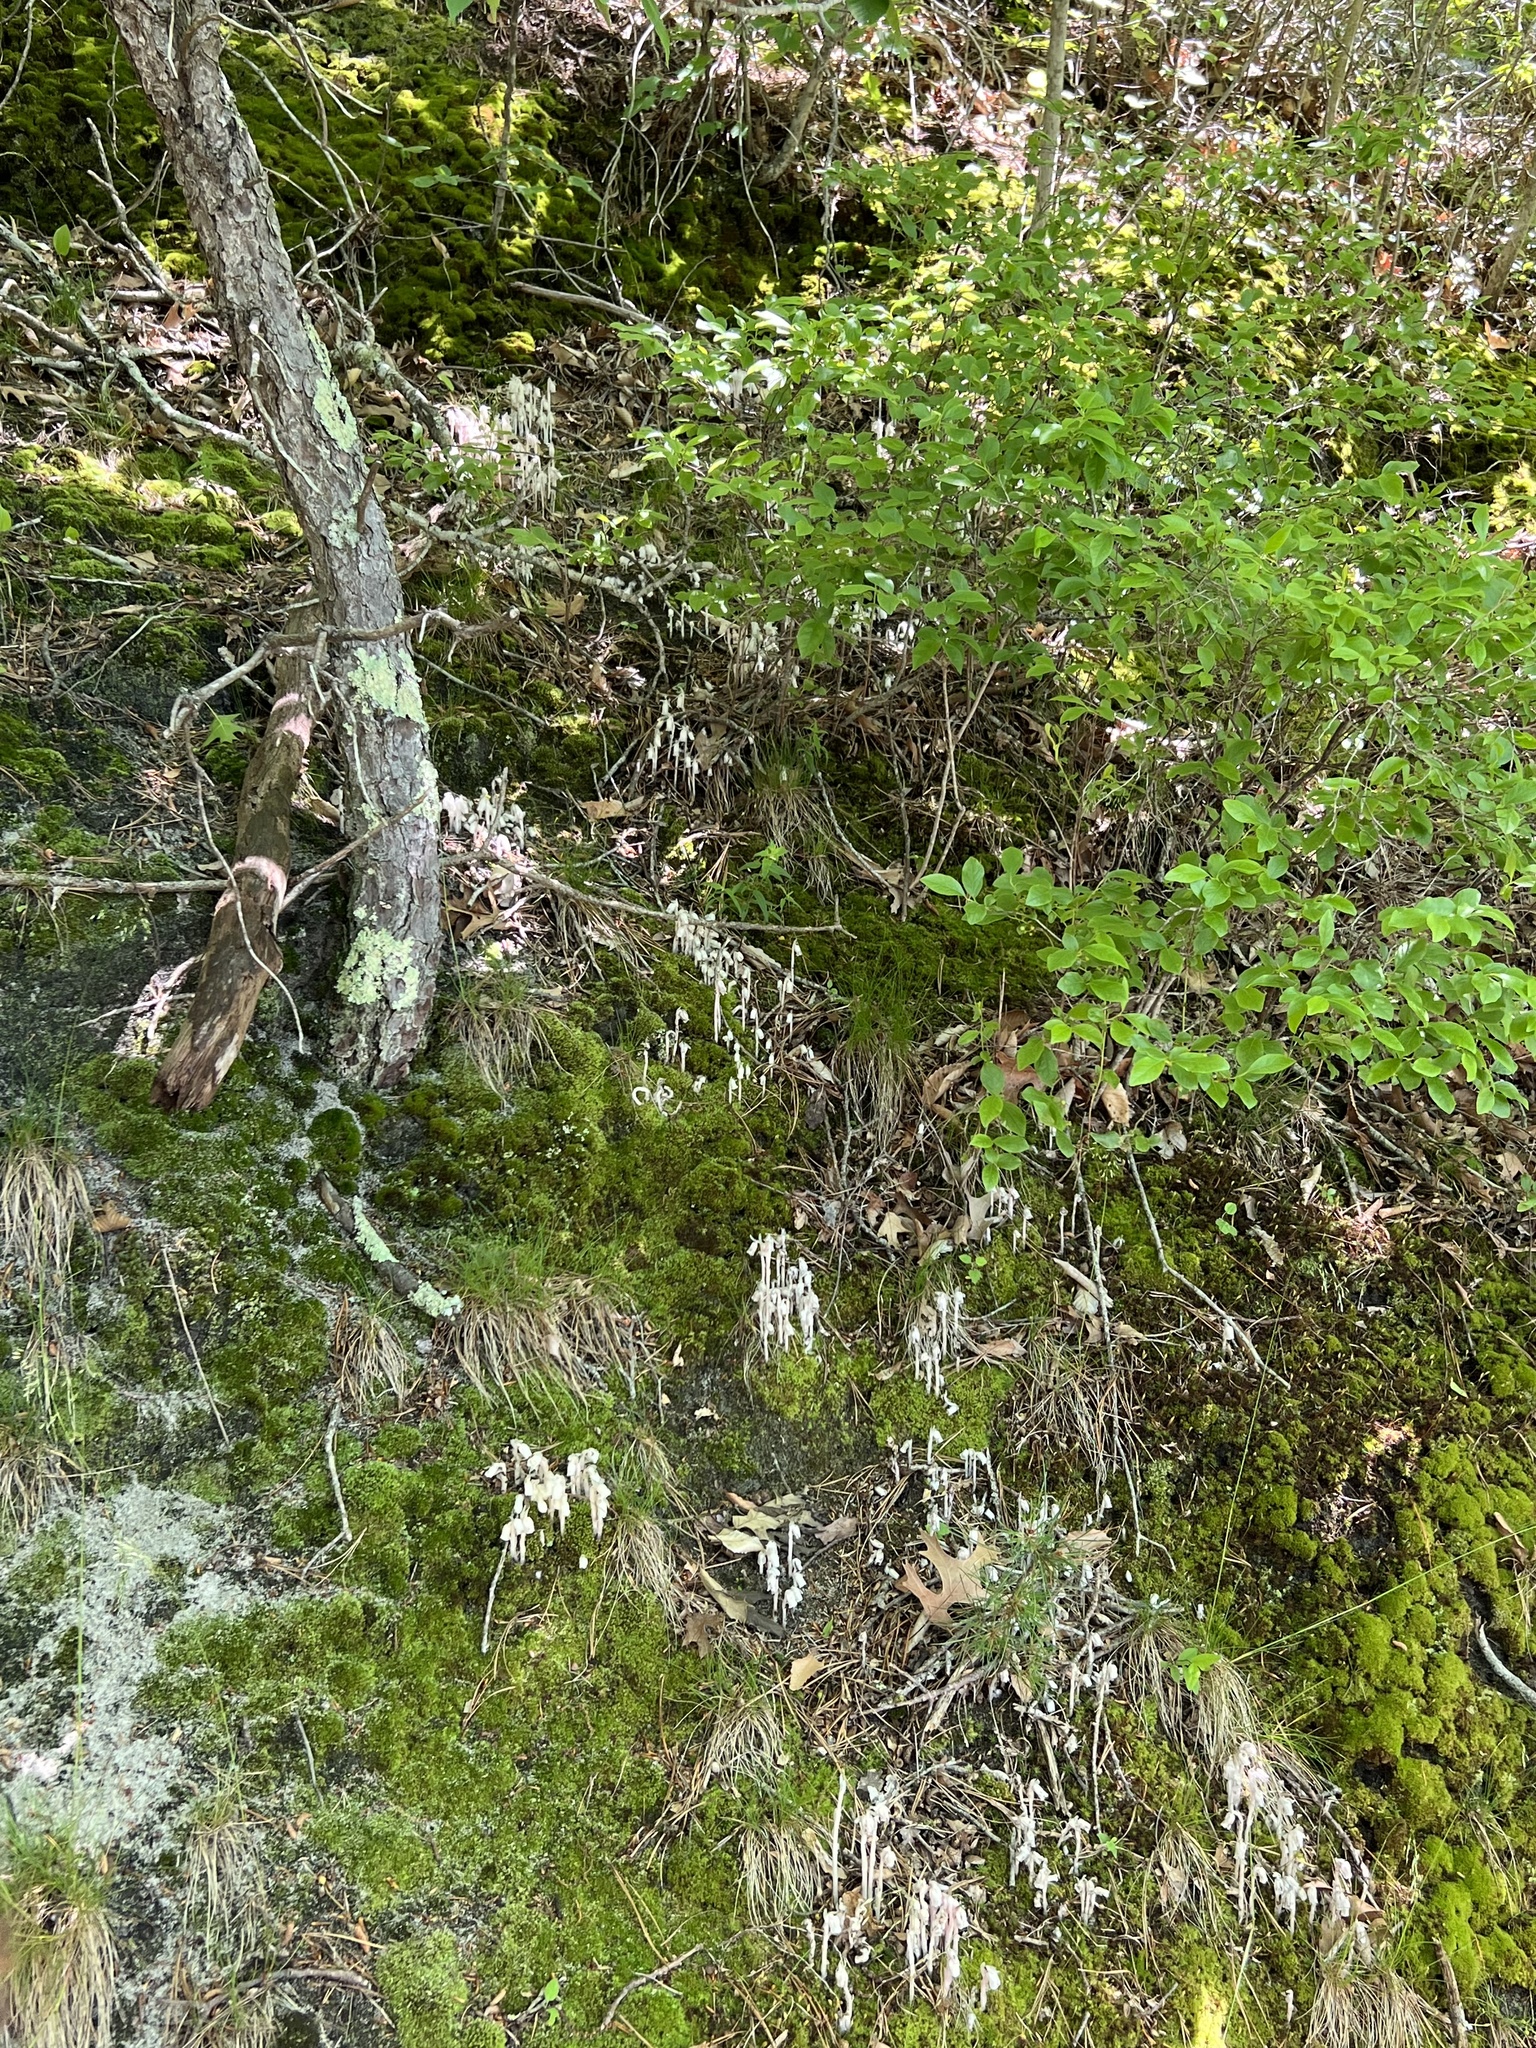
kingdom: Plantae
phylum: Tracheophyta
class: Magnoliopsida
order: Ericales
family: Ericaceae
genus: Monotropa
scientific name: Monotropa uniflora
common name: Convulsion root
